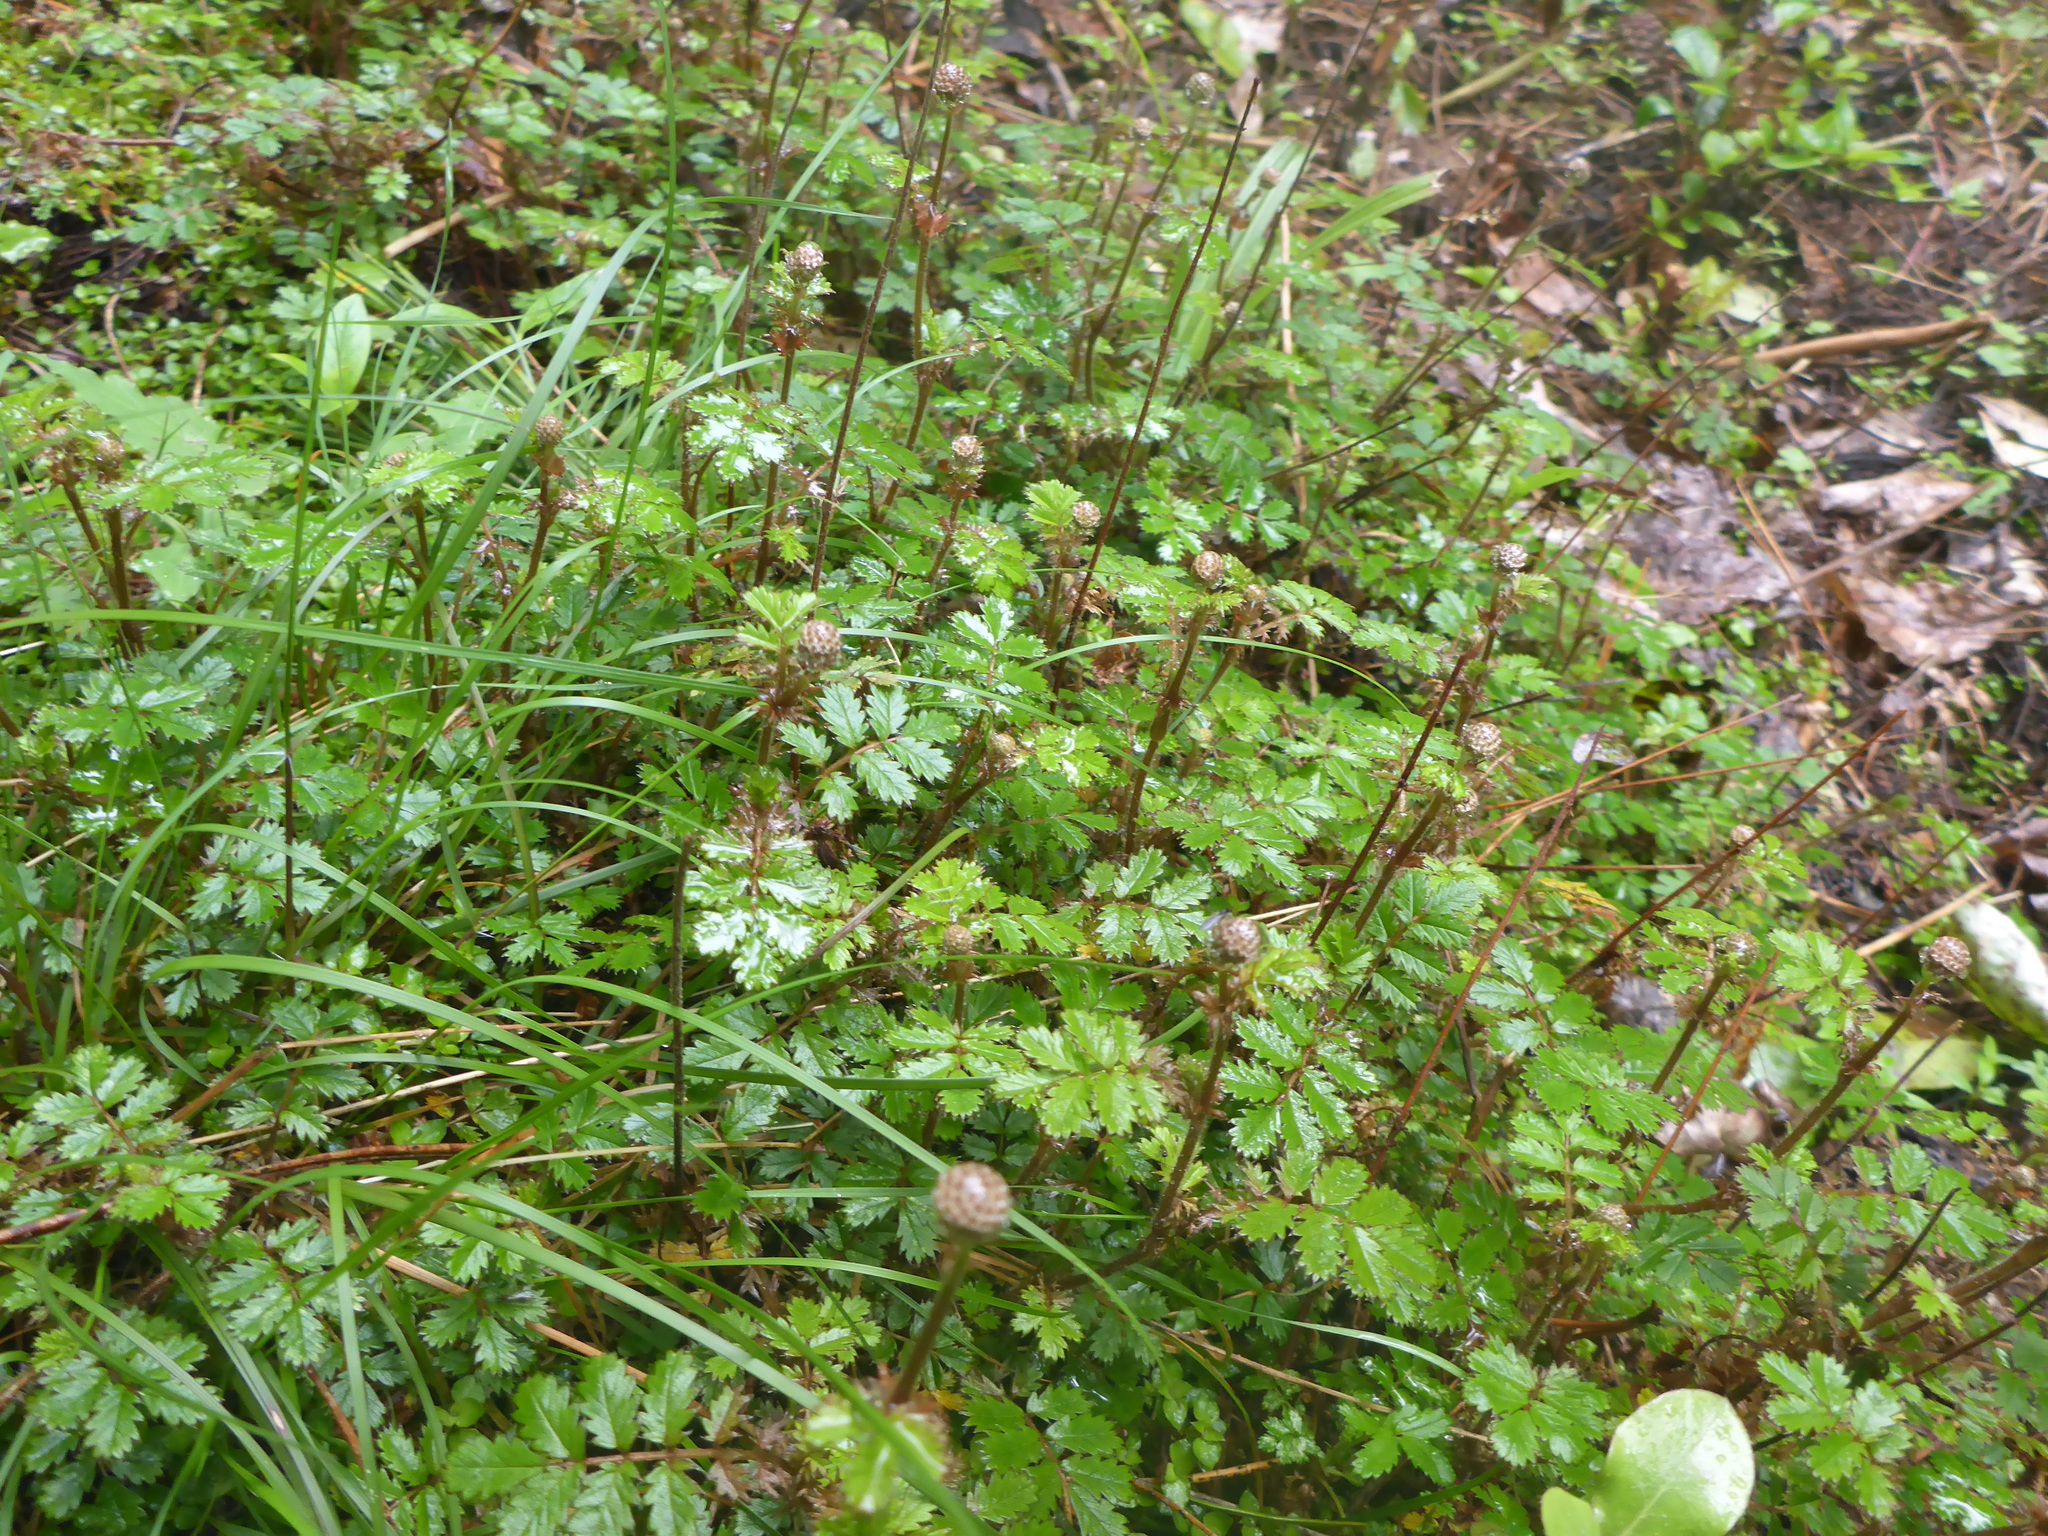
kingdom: Plantae
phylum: Tracheophyta
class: Magnoliopsida
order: Rosales
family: Rosaceae
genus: Acaena
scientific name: Acaena anserinifolia
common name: Bronze pirri-pirri-bur
